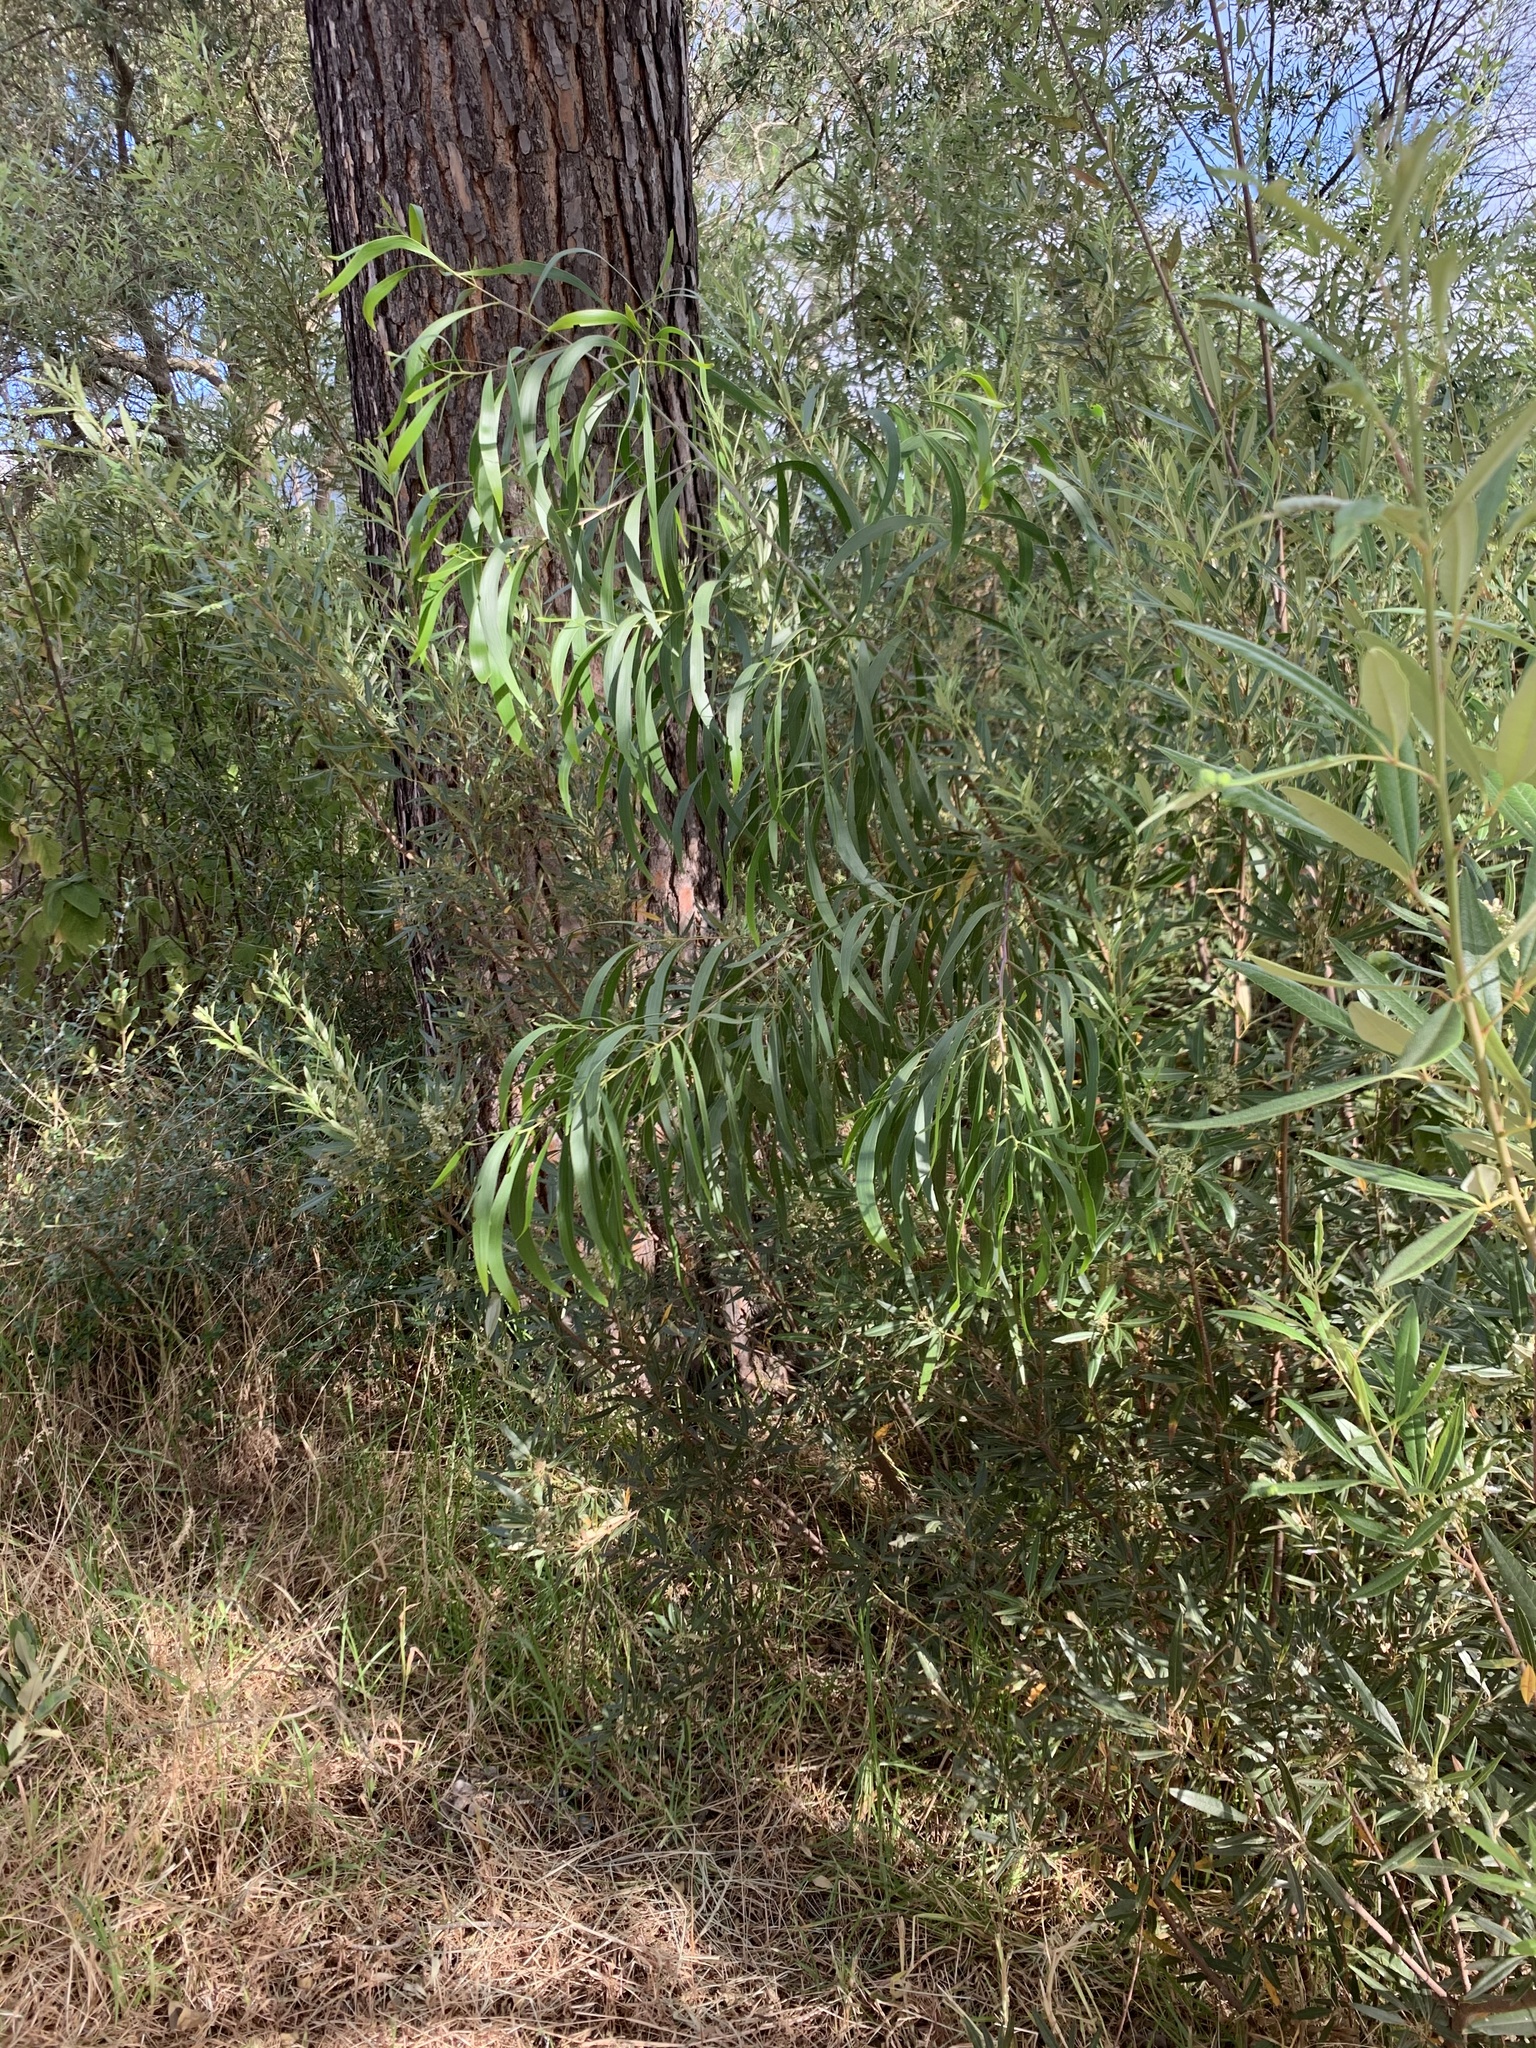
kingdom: Plantae
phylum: Tracheophyta
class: Magnoliopsida
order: Fabales
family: Fabaceae
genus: Acacia
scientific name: Acacia implexa
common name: Black wattle
